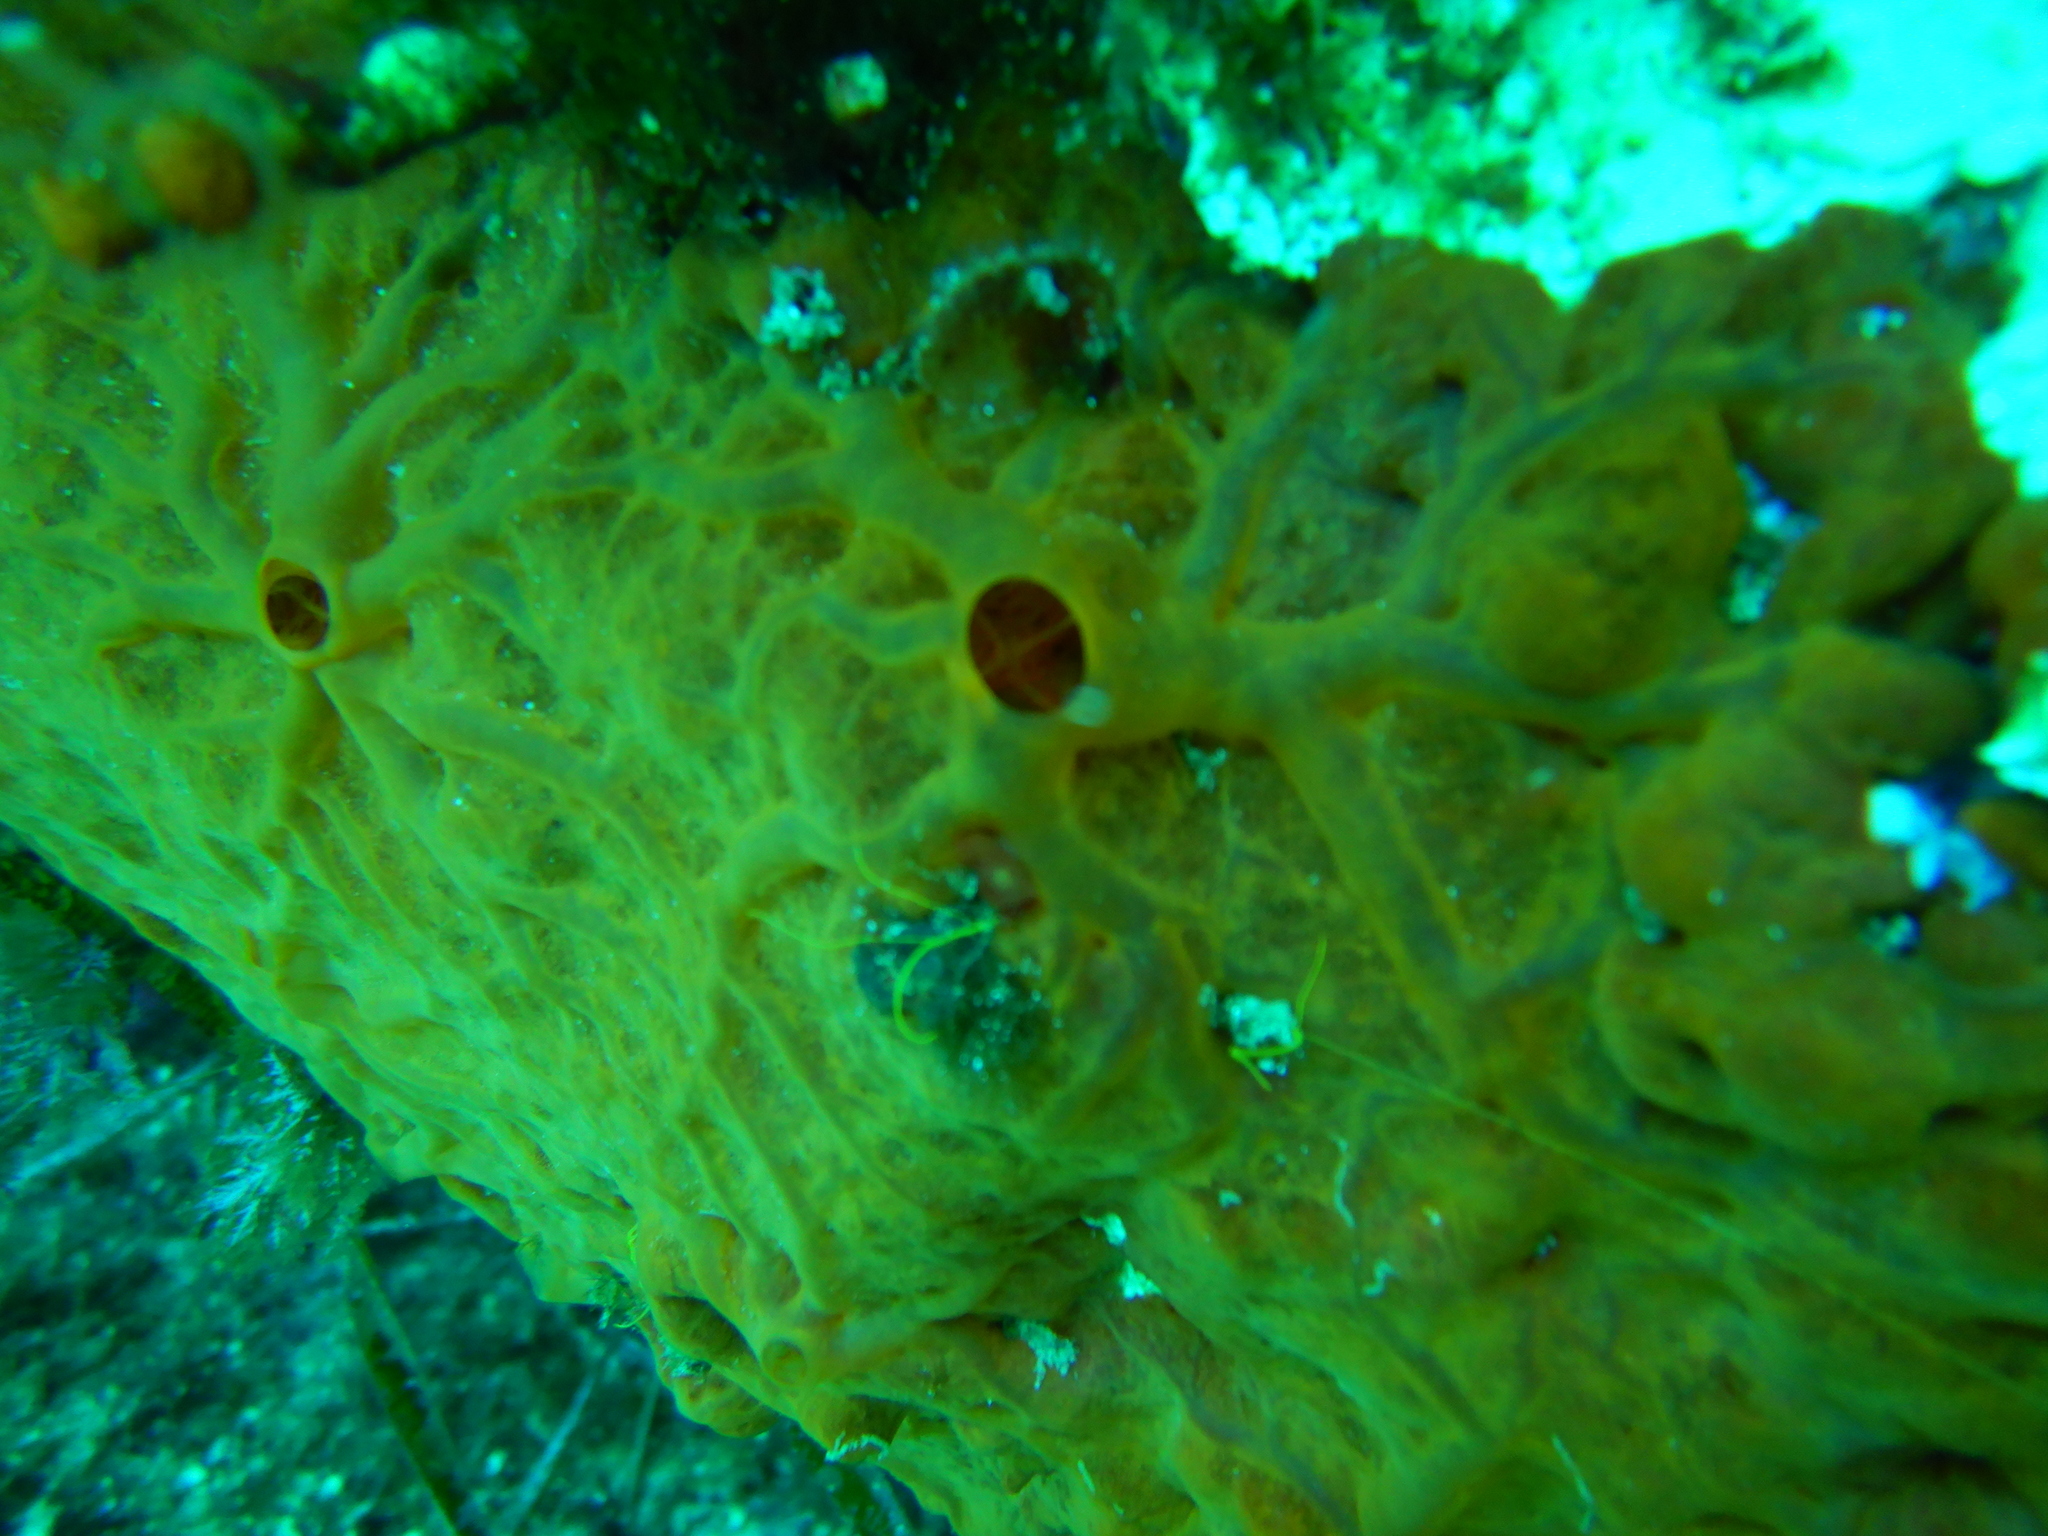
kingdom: Animalia
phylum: Porifera
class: Demospongiae
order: Poecilosclerida
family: Crambeidae
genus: Crambe
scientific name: Crambe crambe
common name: Orange-red encrusting sponge
